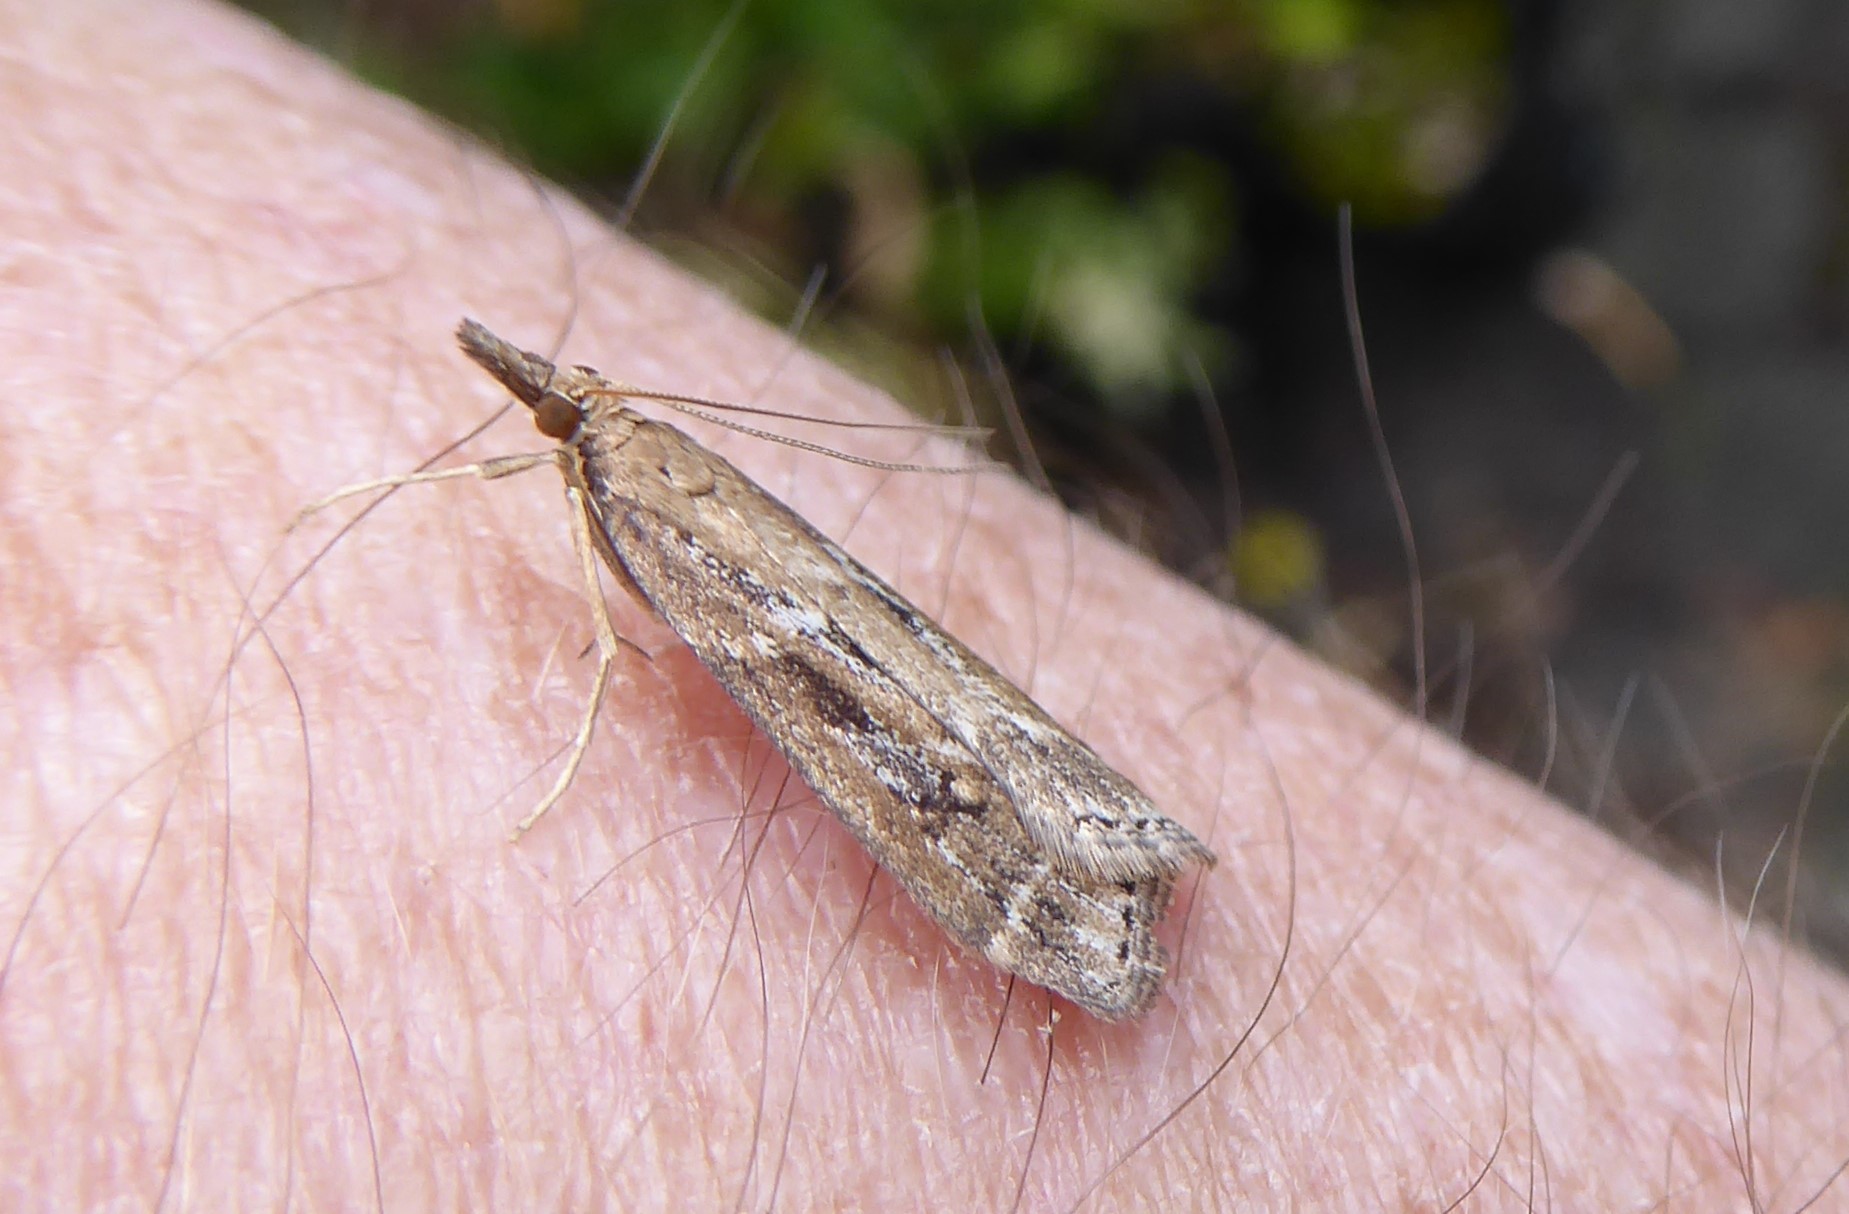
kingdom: Animalia
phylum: Arthropoda
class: Insecta
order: Lepidoptera
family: Crambidae
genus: Eudonia
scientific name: Eudonia octophora
